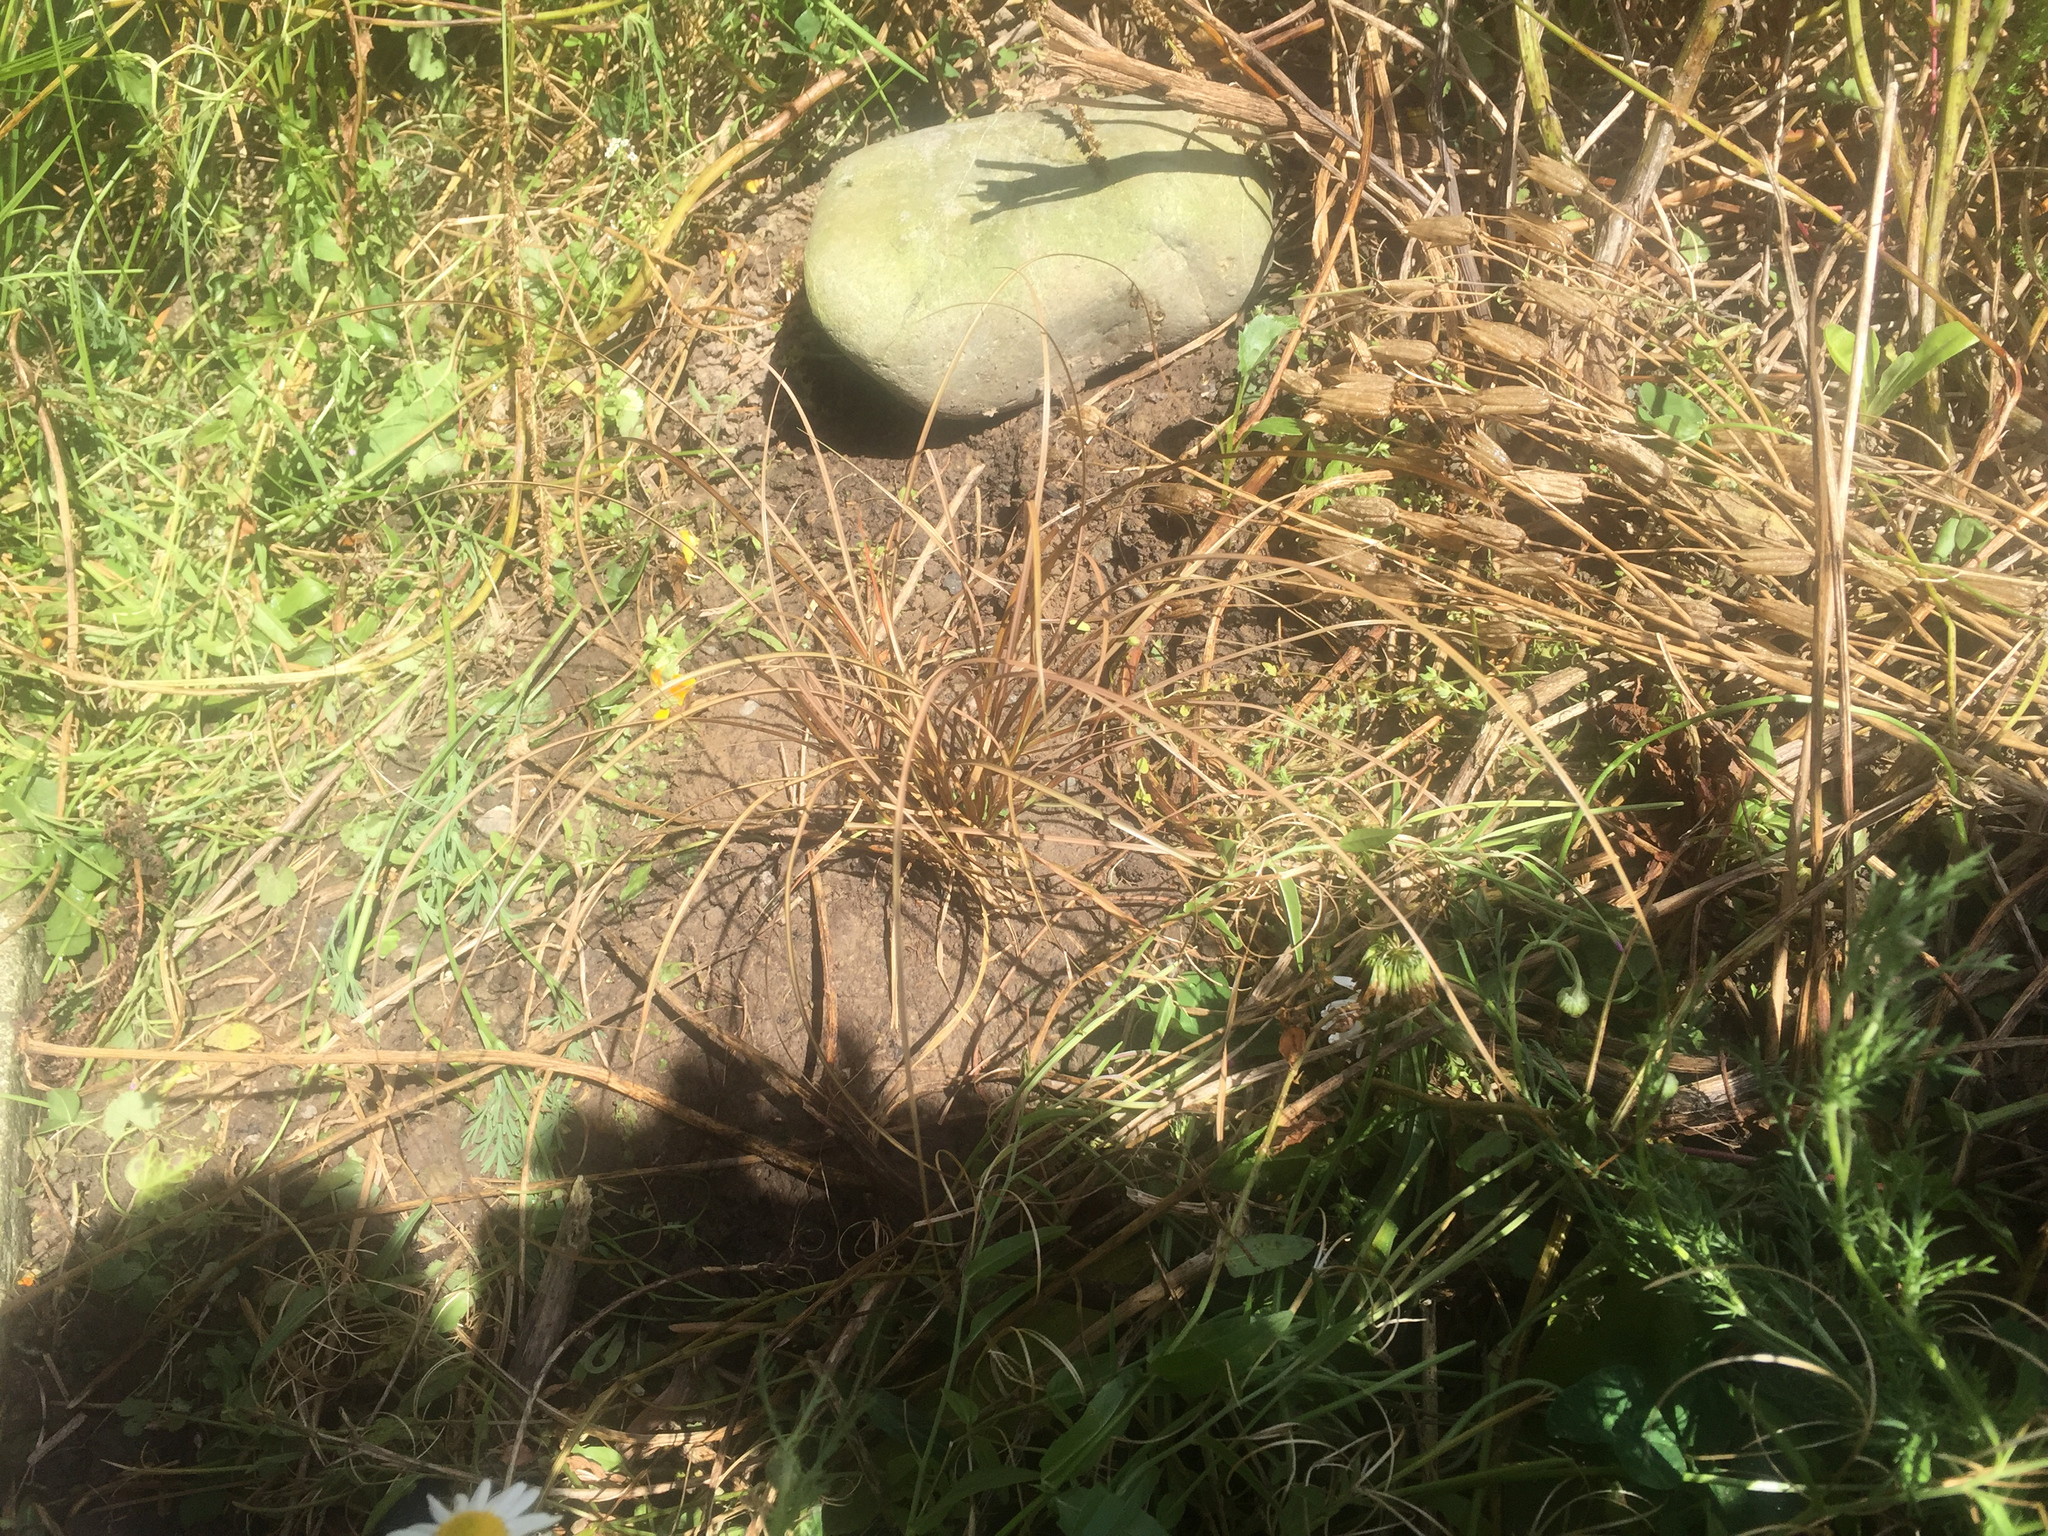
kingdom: Plantae
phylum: Tracheophyta
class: Liliopsida
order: Poales
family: Cyperaceae
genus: Carex
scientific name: Carex flagellifera
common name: Glen murray tussock
